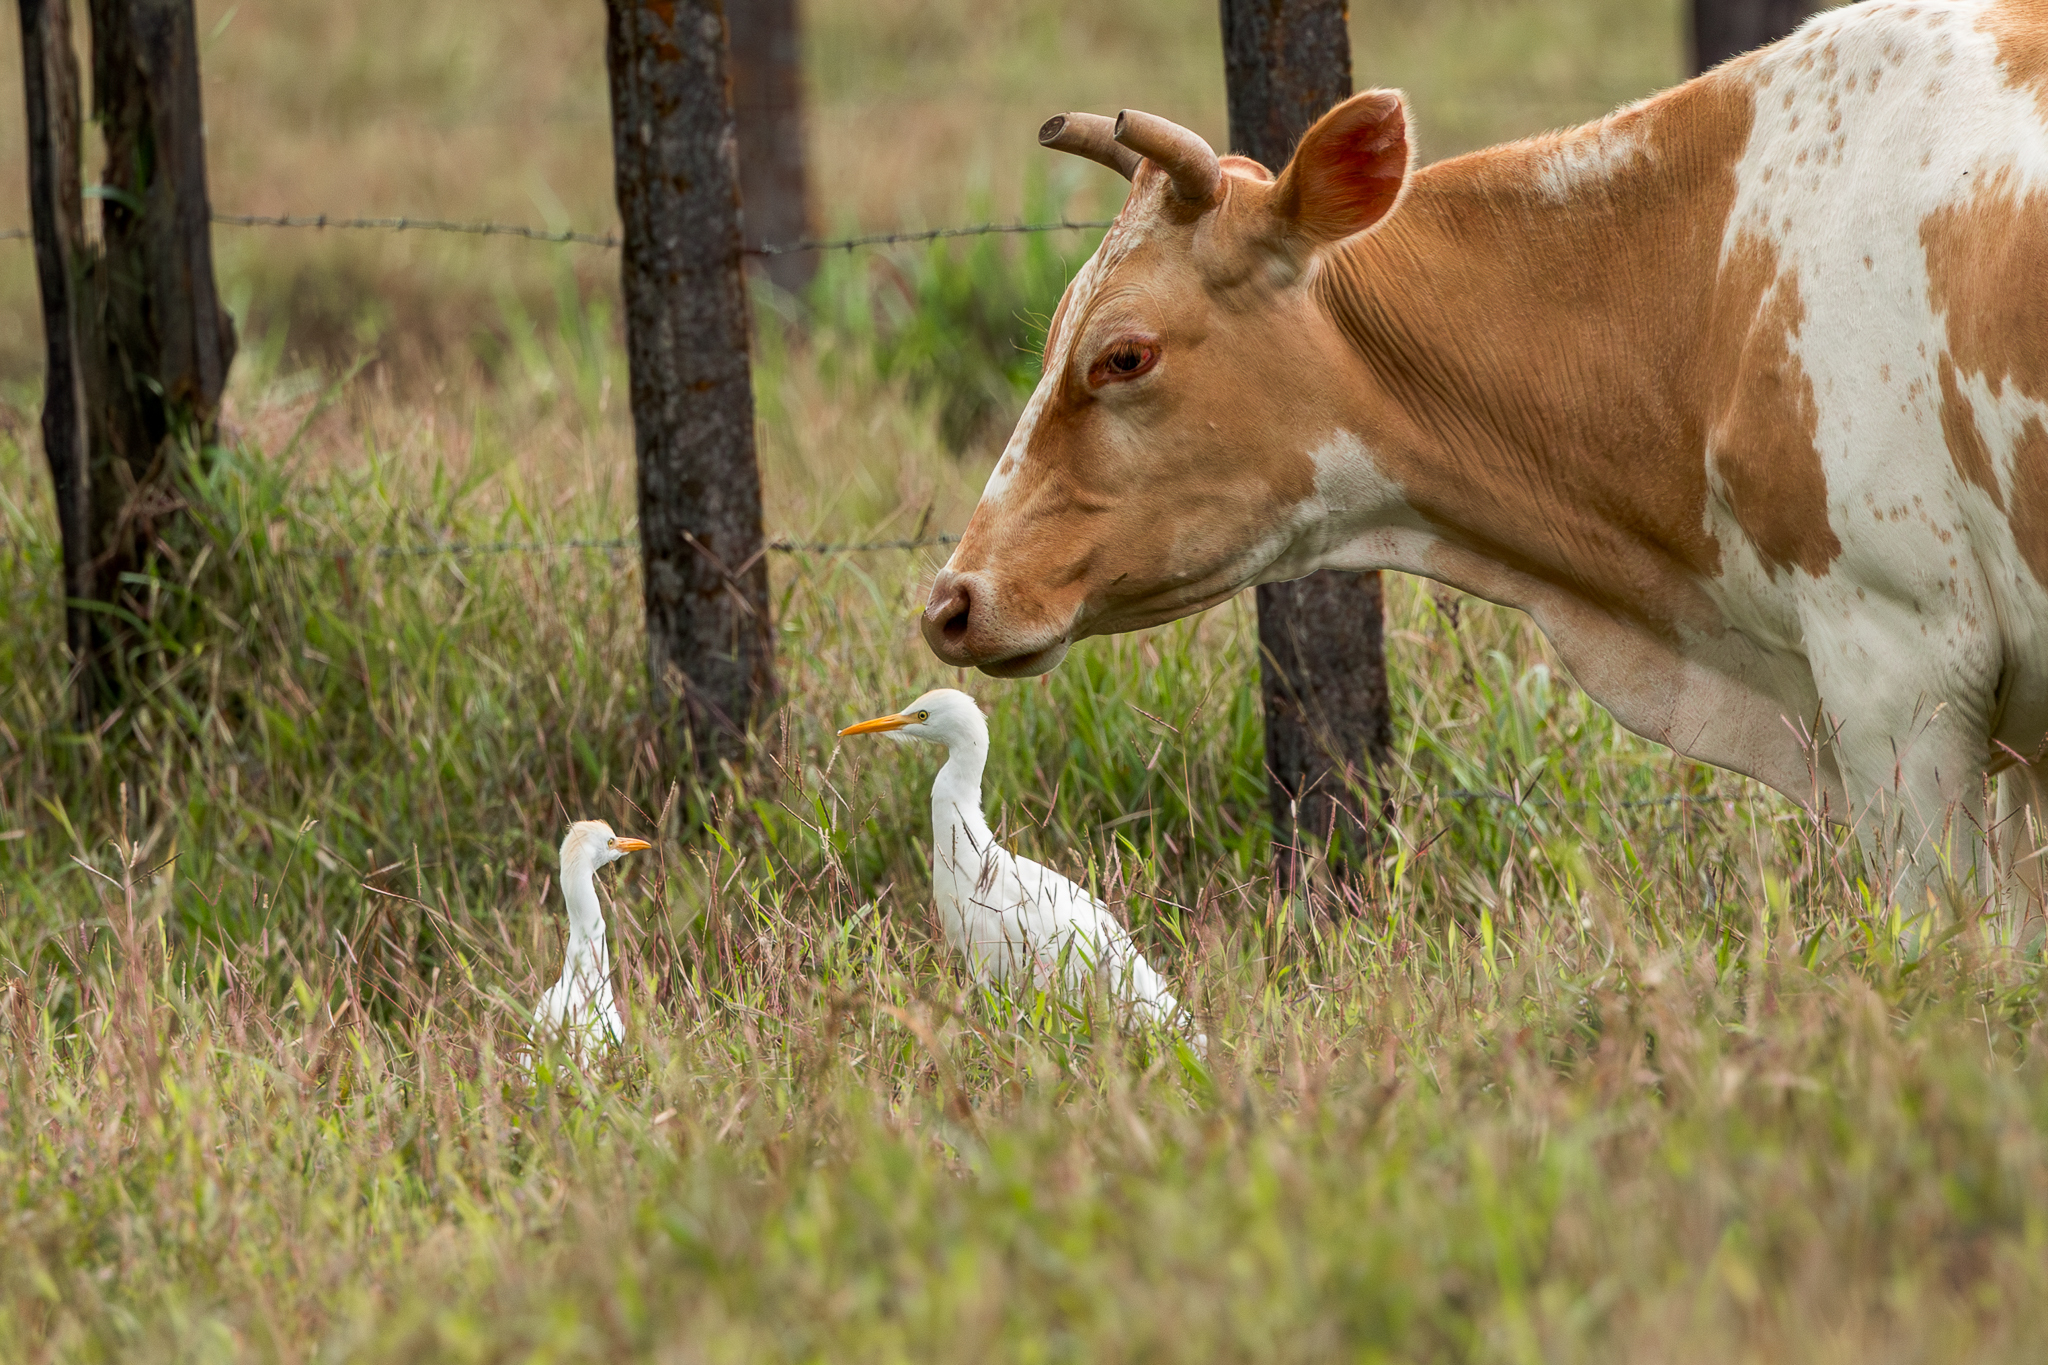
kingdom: Animalia
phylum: Chordata
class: Aves
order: Pelecaniformes
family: Ardeidae
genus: Bubulcus
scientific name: Bubulcus ibis
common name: Cattle egret
